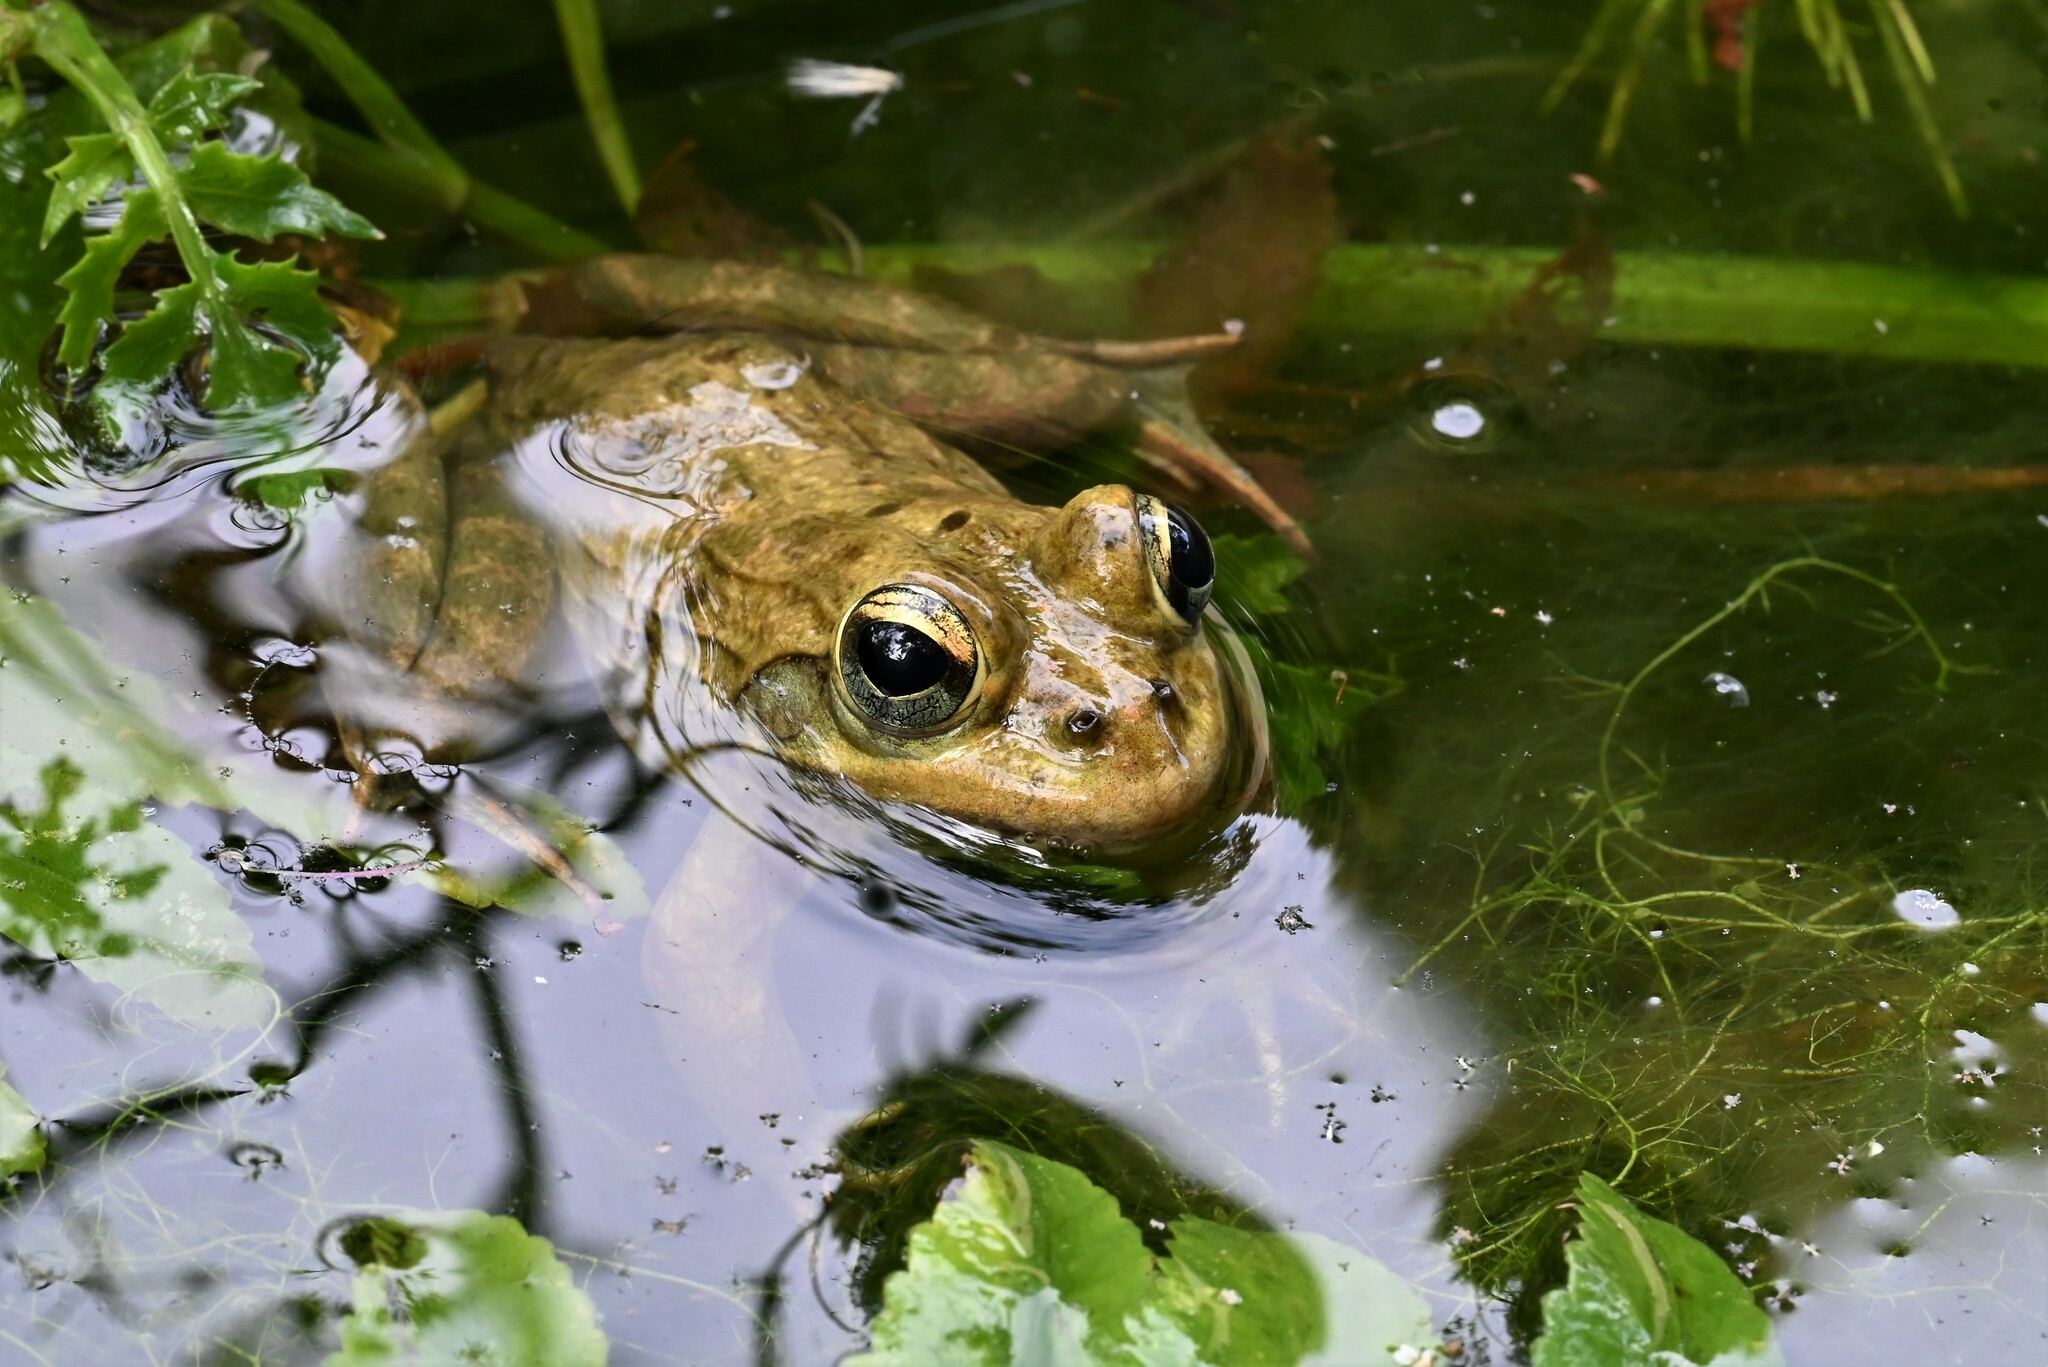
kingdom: Animalia
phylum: Chordata
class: Amphibia
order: Anura
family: Pyxicephalidae
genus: Amietia
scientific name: Amietia fuscigula
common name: Cape rana
